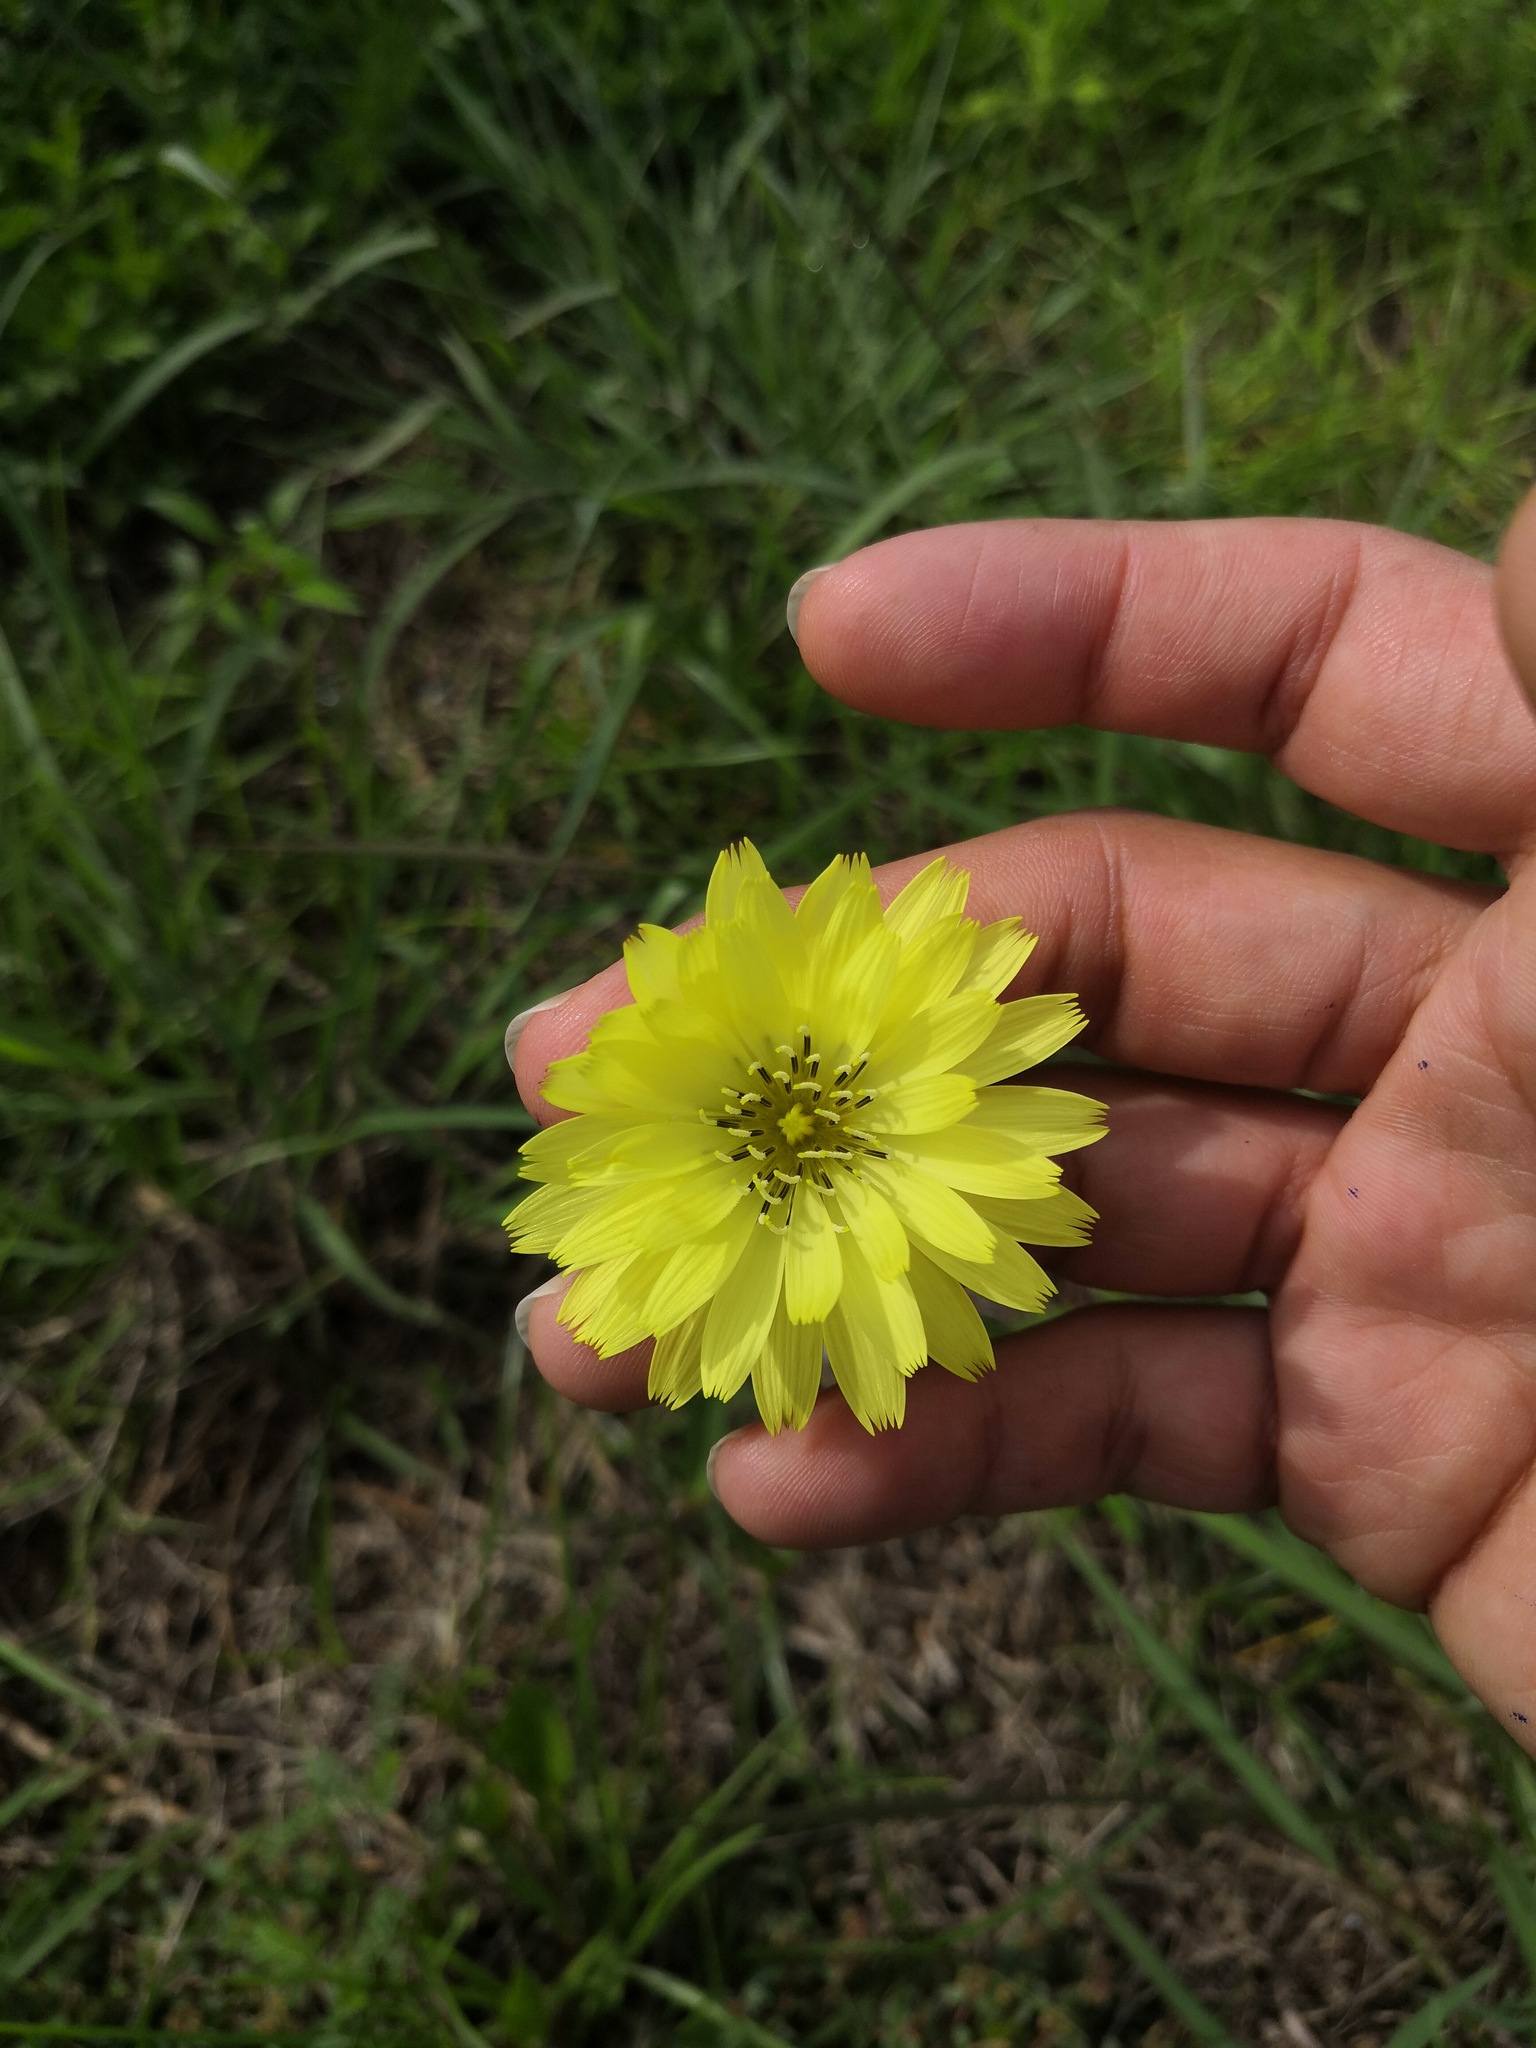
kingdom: Plantae
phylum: Tracheophyta
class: Magnoliopsida
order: Asterales
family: Asteraceae
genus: Pyrrhopappus
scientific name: Pyrrhopappus pauciflorus
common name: Texas false dandelion
